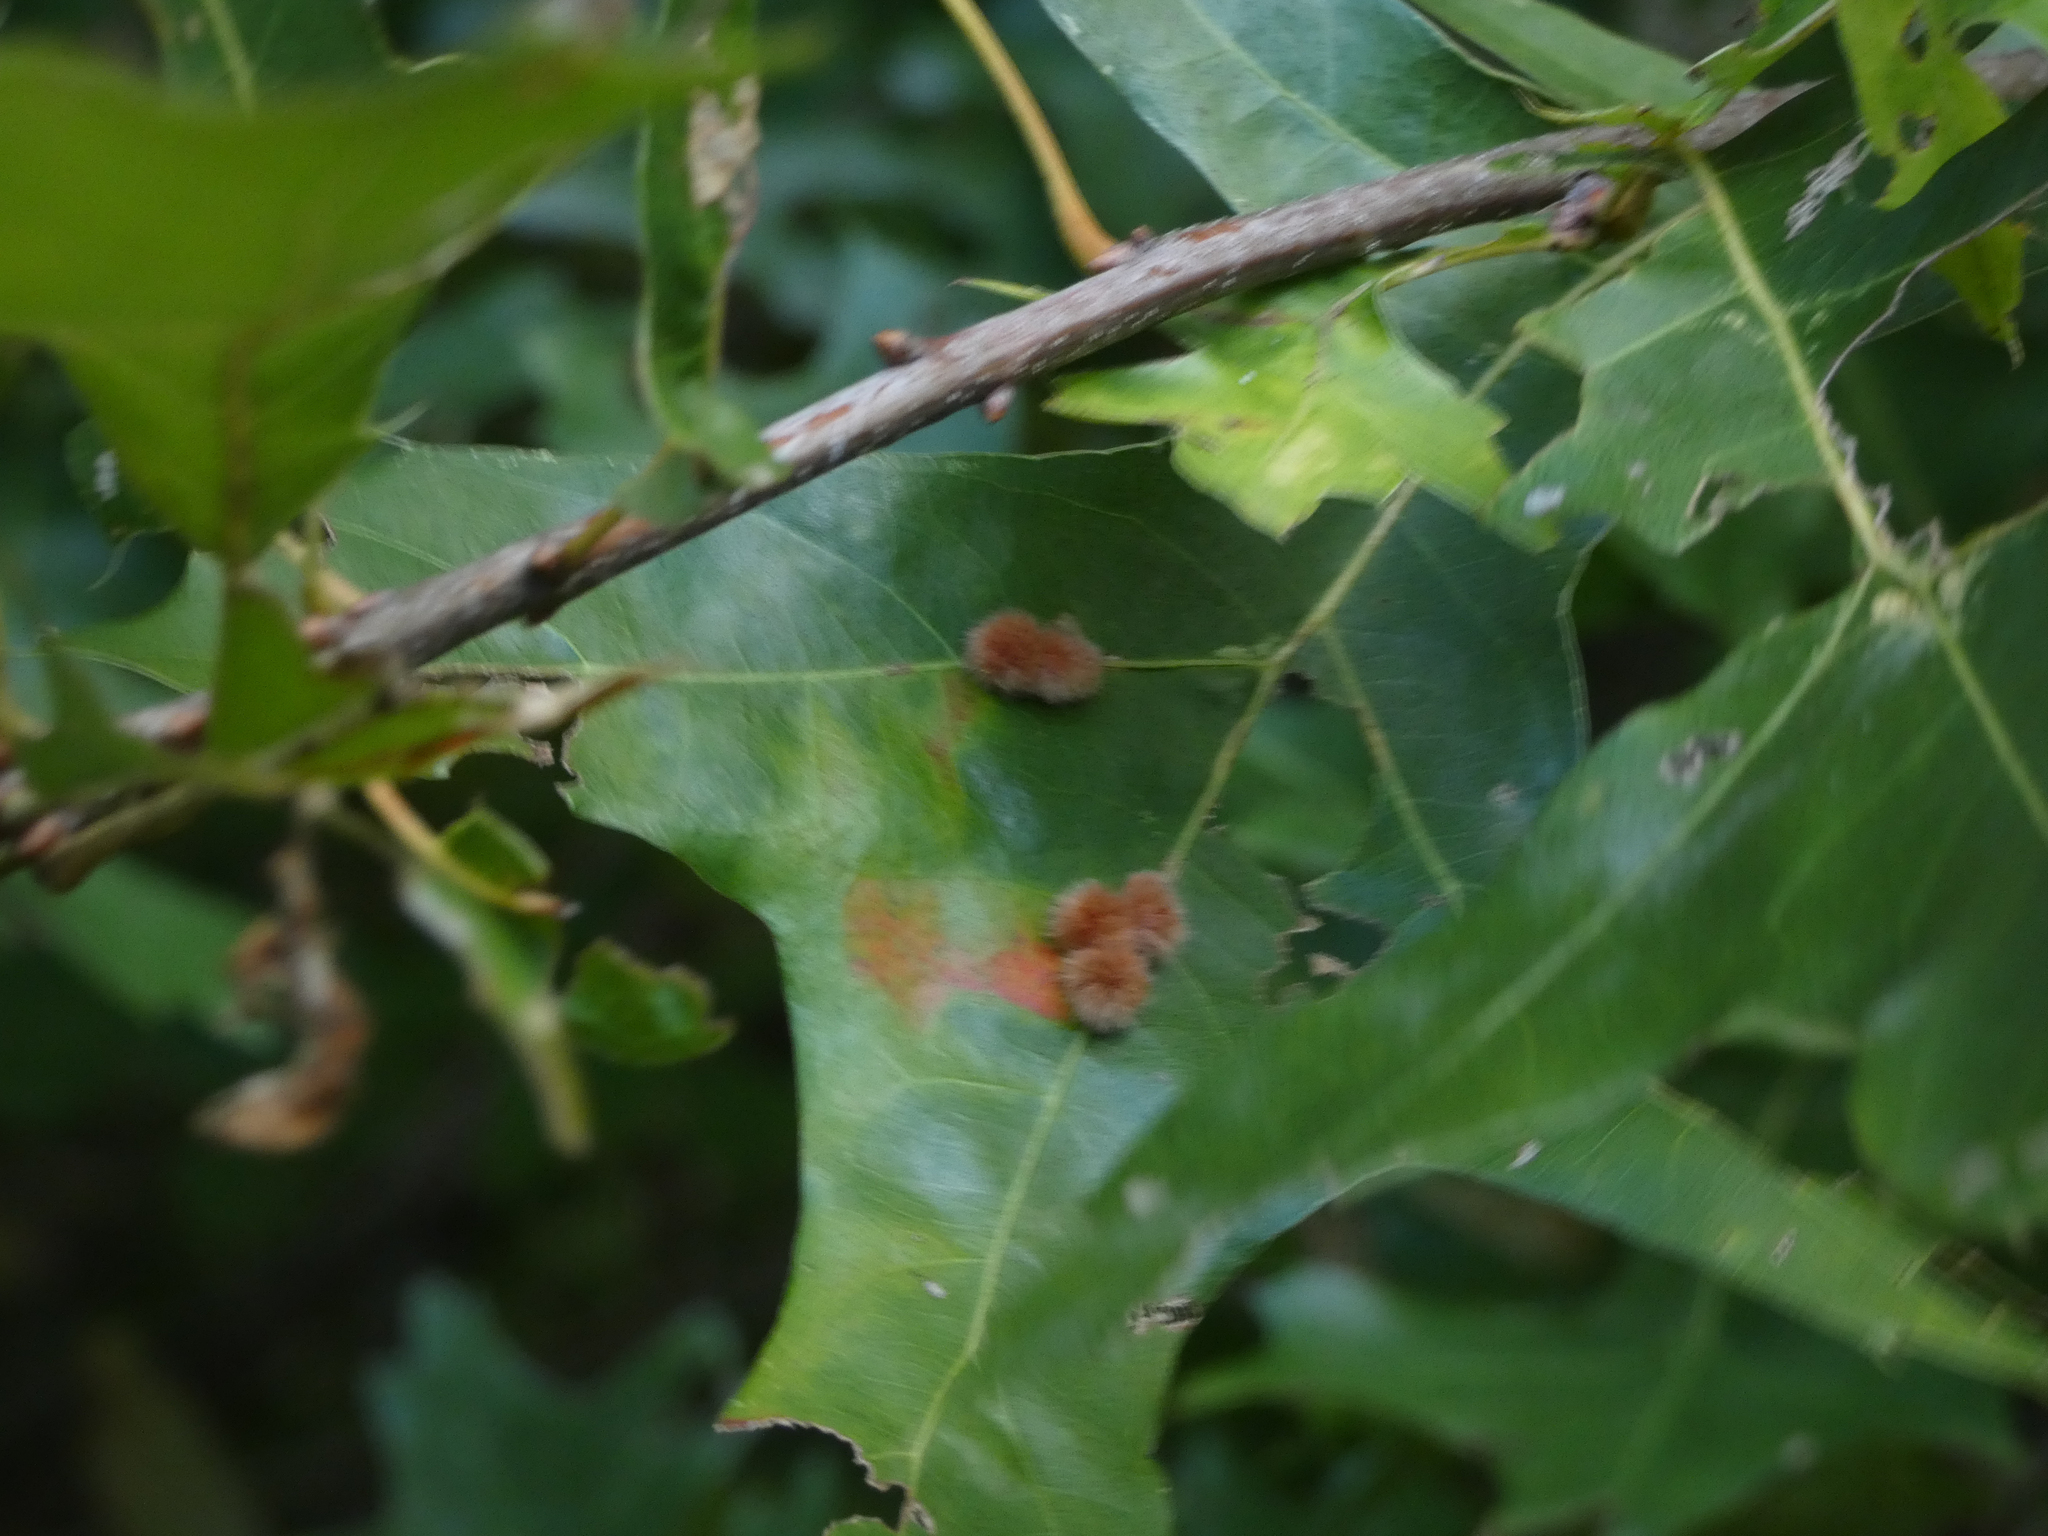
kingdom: Animalia
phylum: Arthropoda
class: Insecta
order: Hymenoptera
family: Cynipidae
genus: Callirhytis
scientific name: Callirhytis
